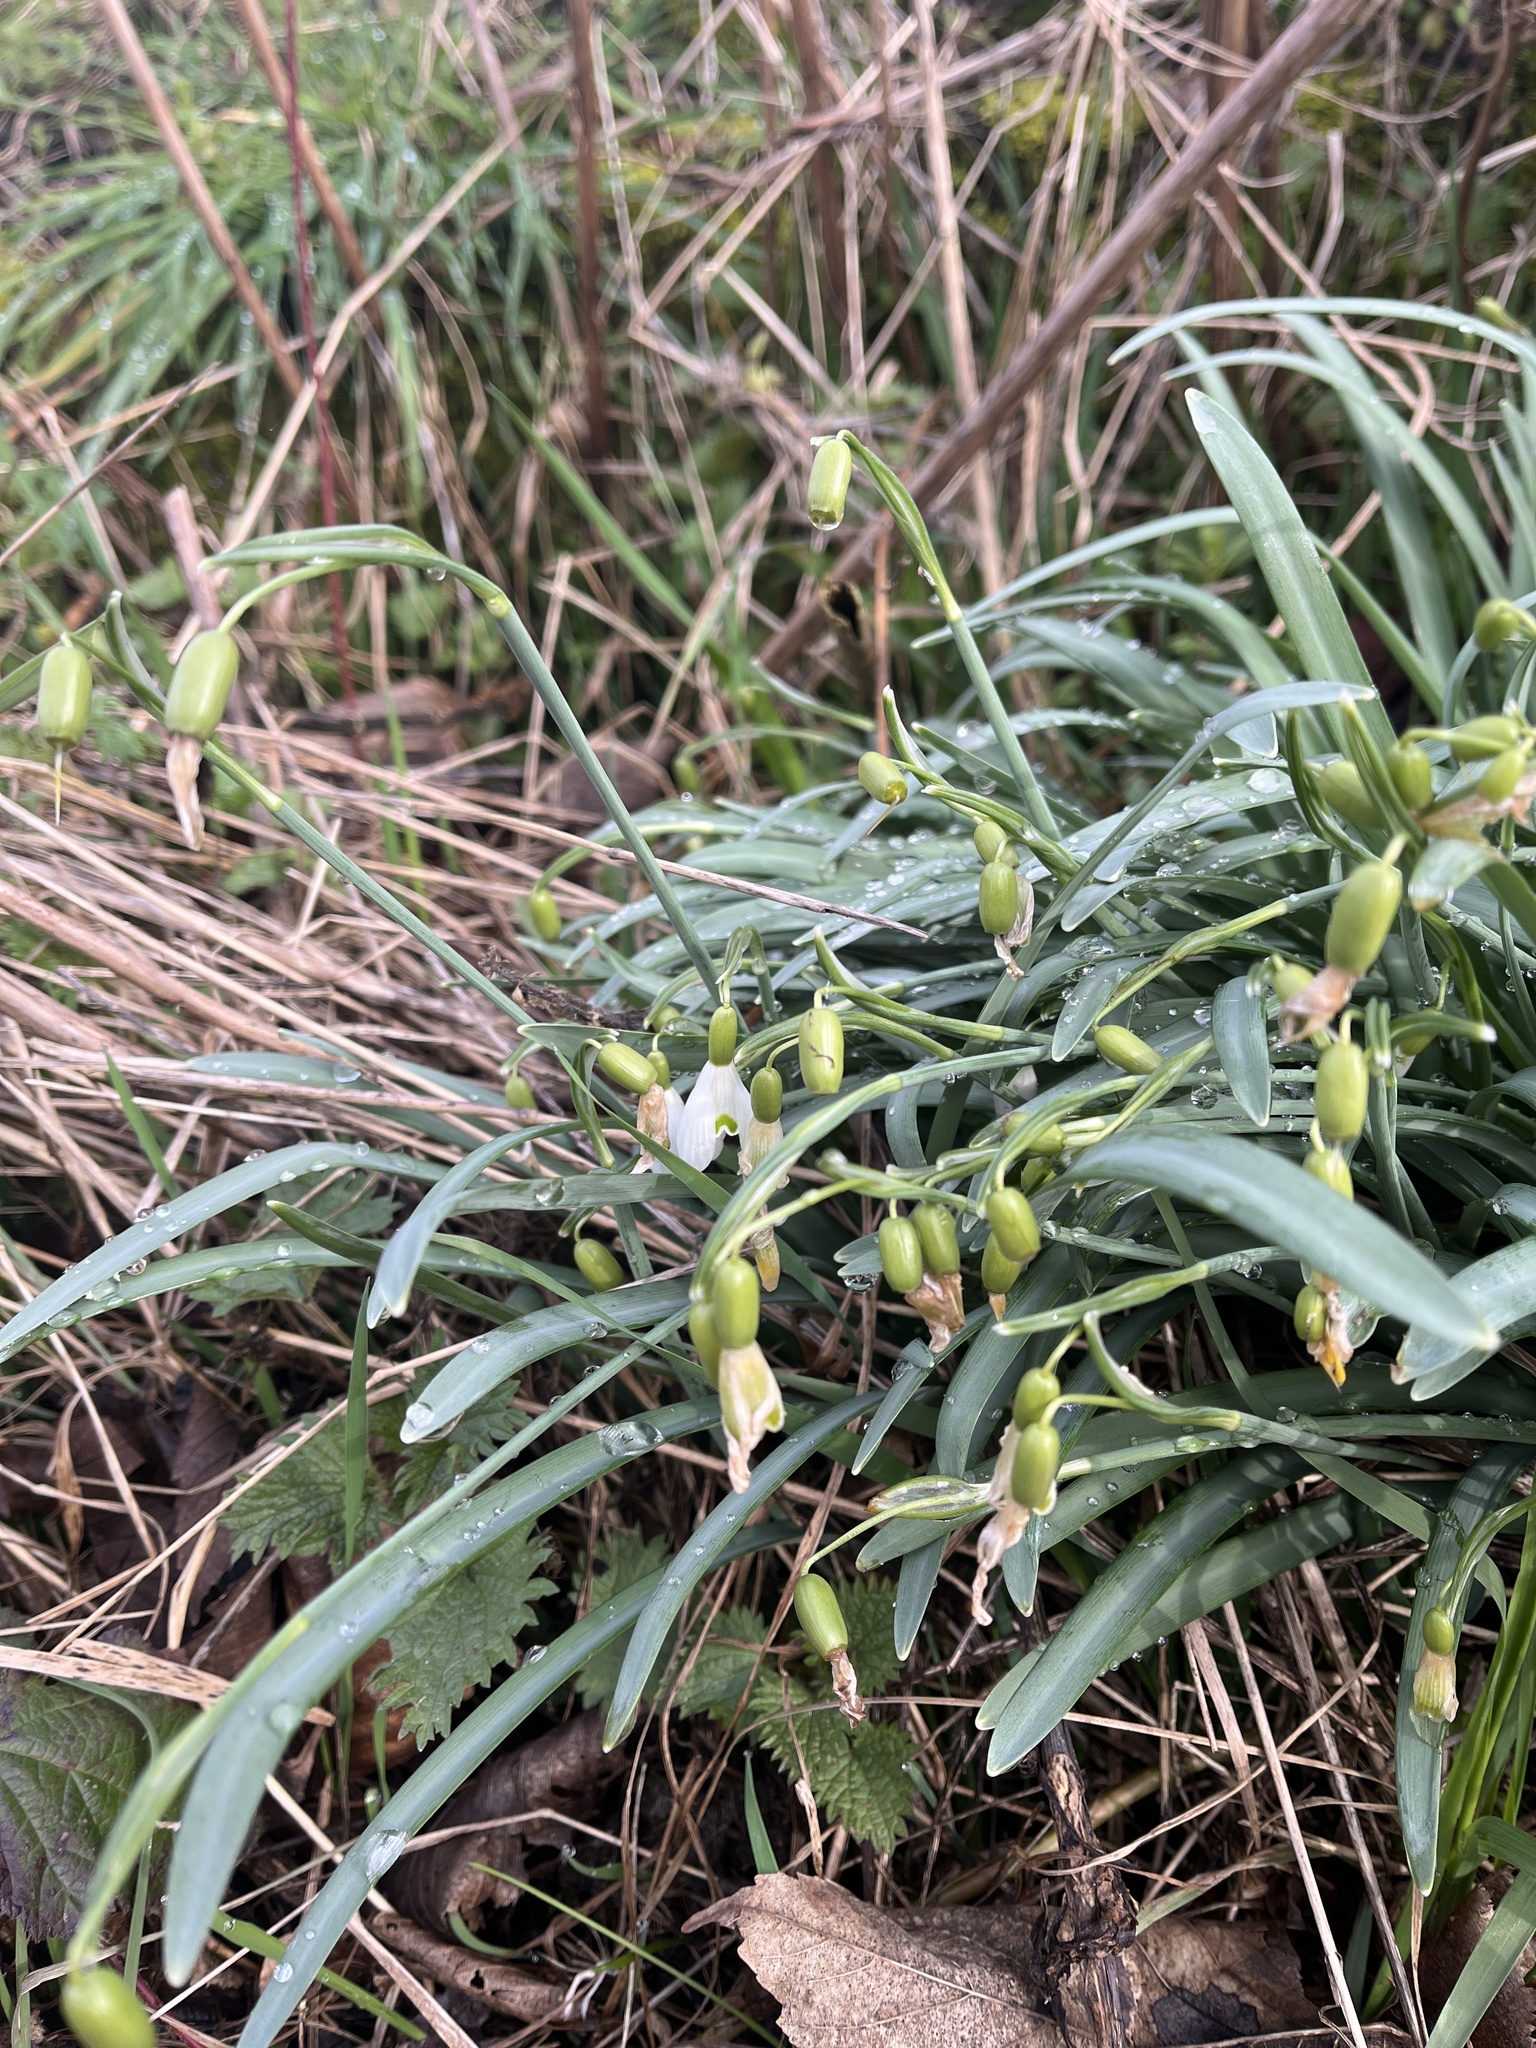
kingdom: Plantae
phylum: Tracheophyta
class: Liliopsida
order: Asparagales
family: Amaryllidaceae
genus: Galanthus
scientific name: Galanthus nivalis
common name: Snowdrop
